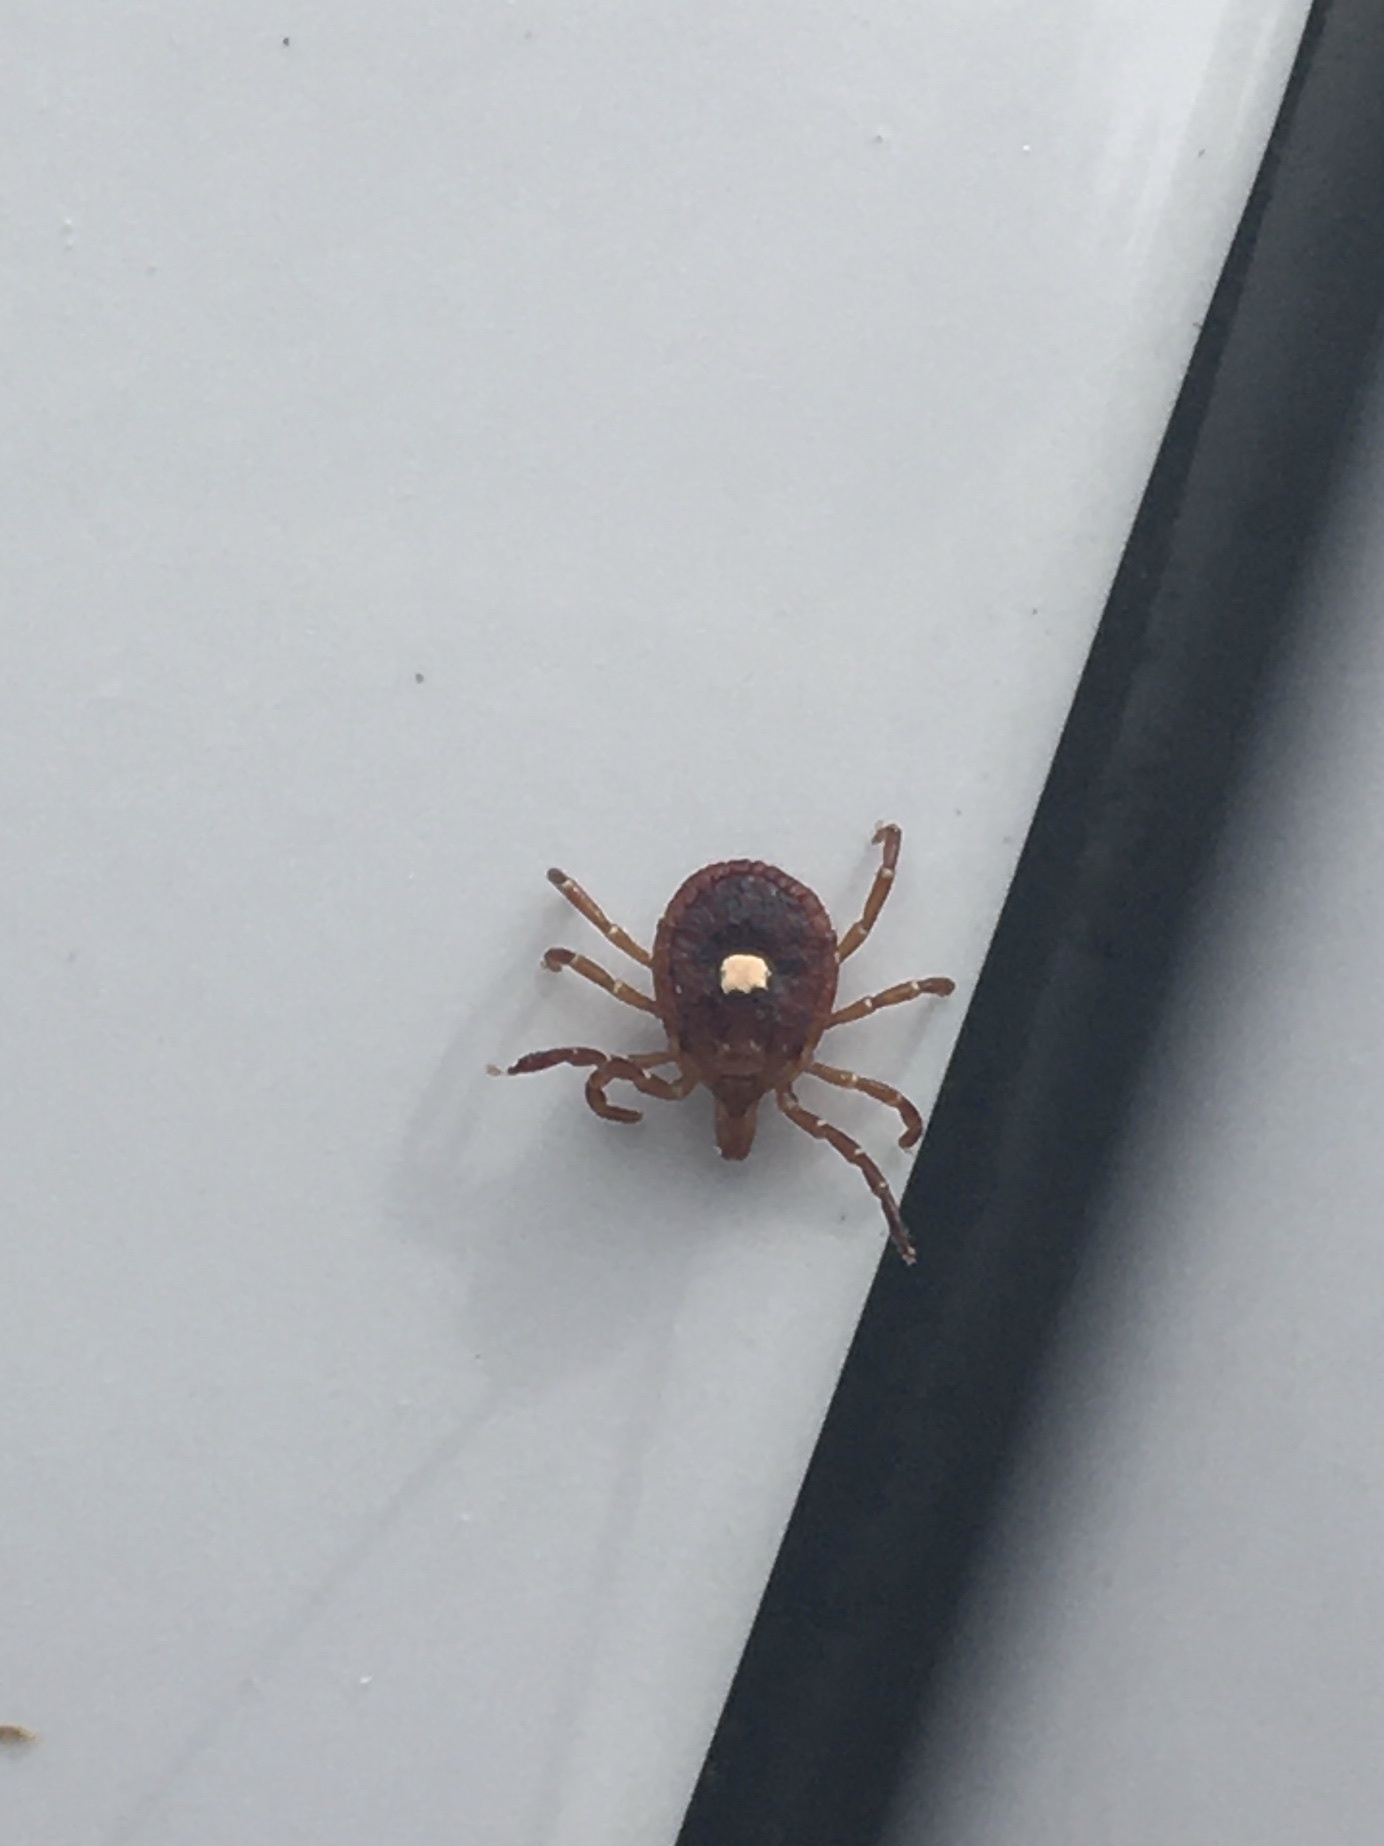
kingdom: Animalia
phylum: Arthropoda
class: Arachnida
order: Ixodida
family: Ixodidae
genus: Amblyomma
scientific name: Amblyomma americanum
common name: Lone star tick
